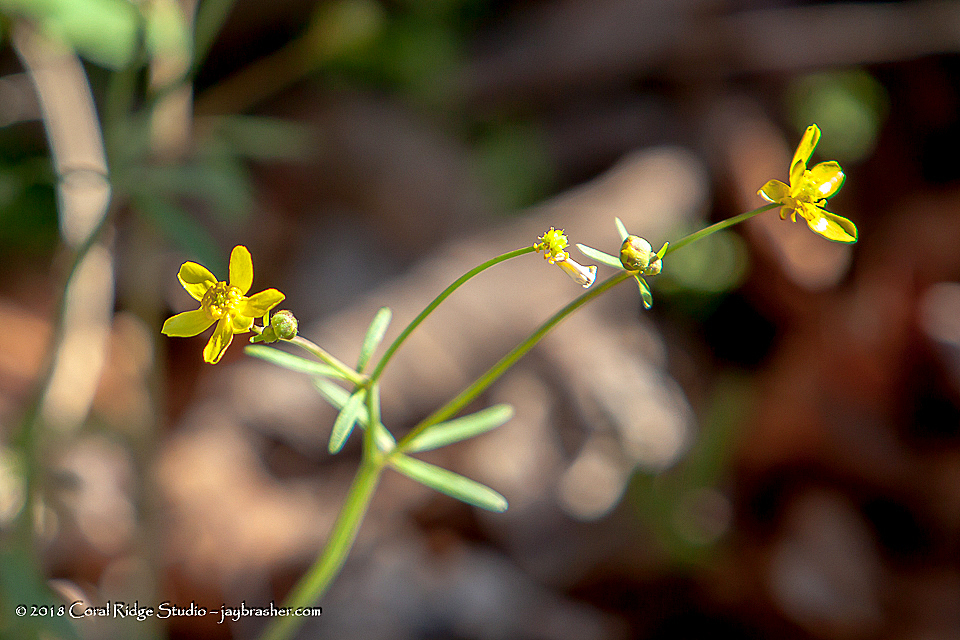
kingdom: Plantae
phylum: Tracheophyta
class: Magnoliopsida
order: Ranunculales
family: Ranunculaceae
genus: Ranunculus
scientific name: Ranunculus harveyi
